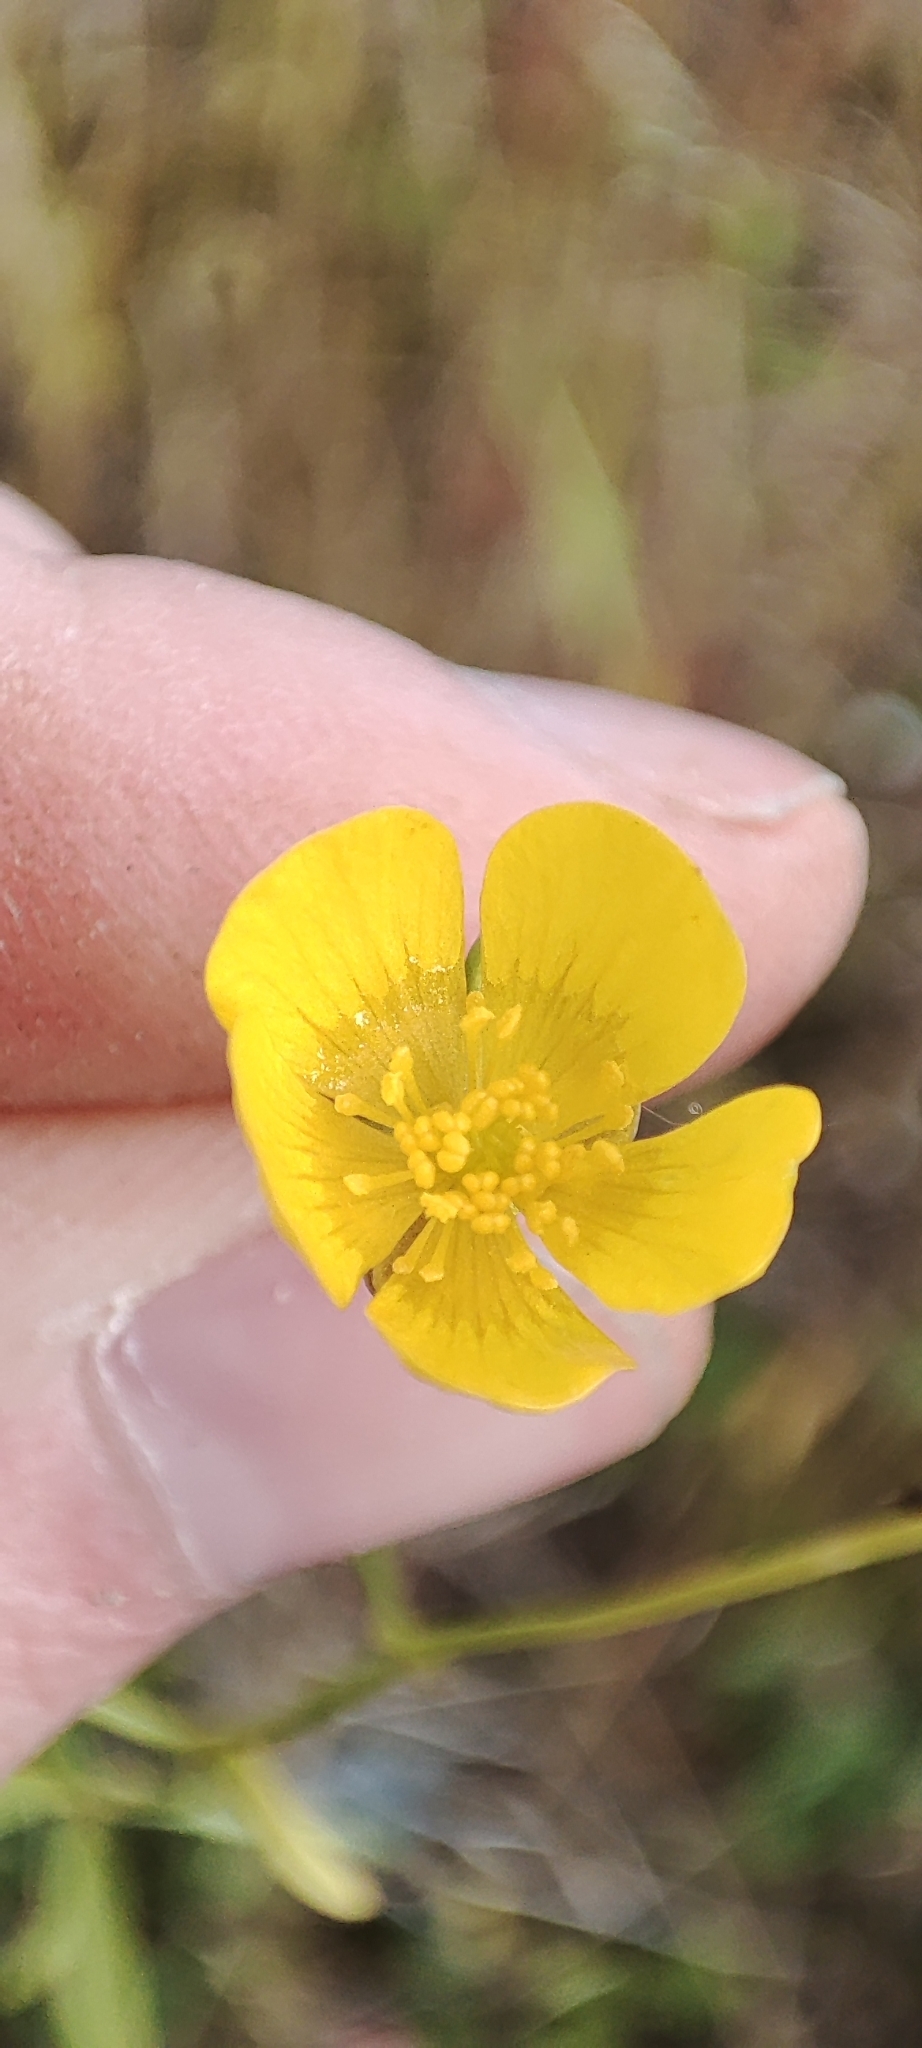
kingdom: Plantae
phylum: Tracheophyta
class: Magnoliopsida
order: Ranunculales
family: Ranunculaceae
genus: Ranunculus
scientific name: Ranunculus propinquus
